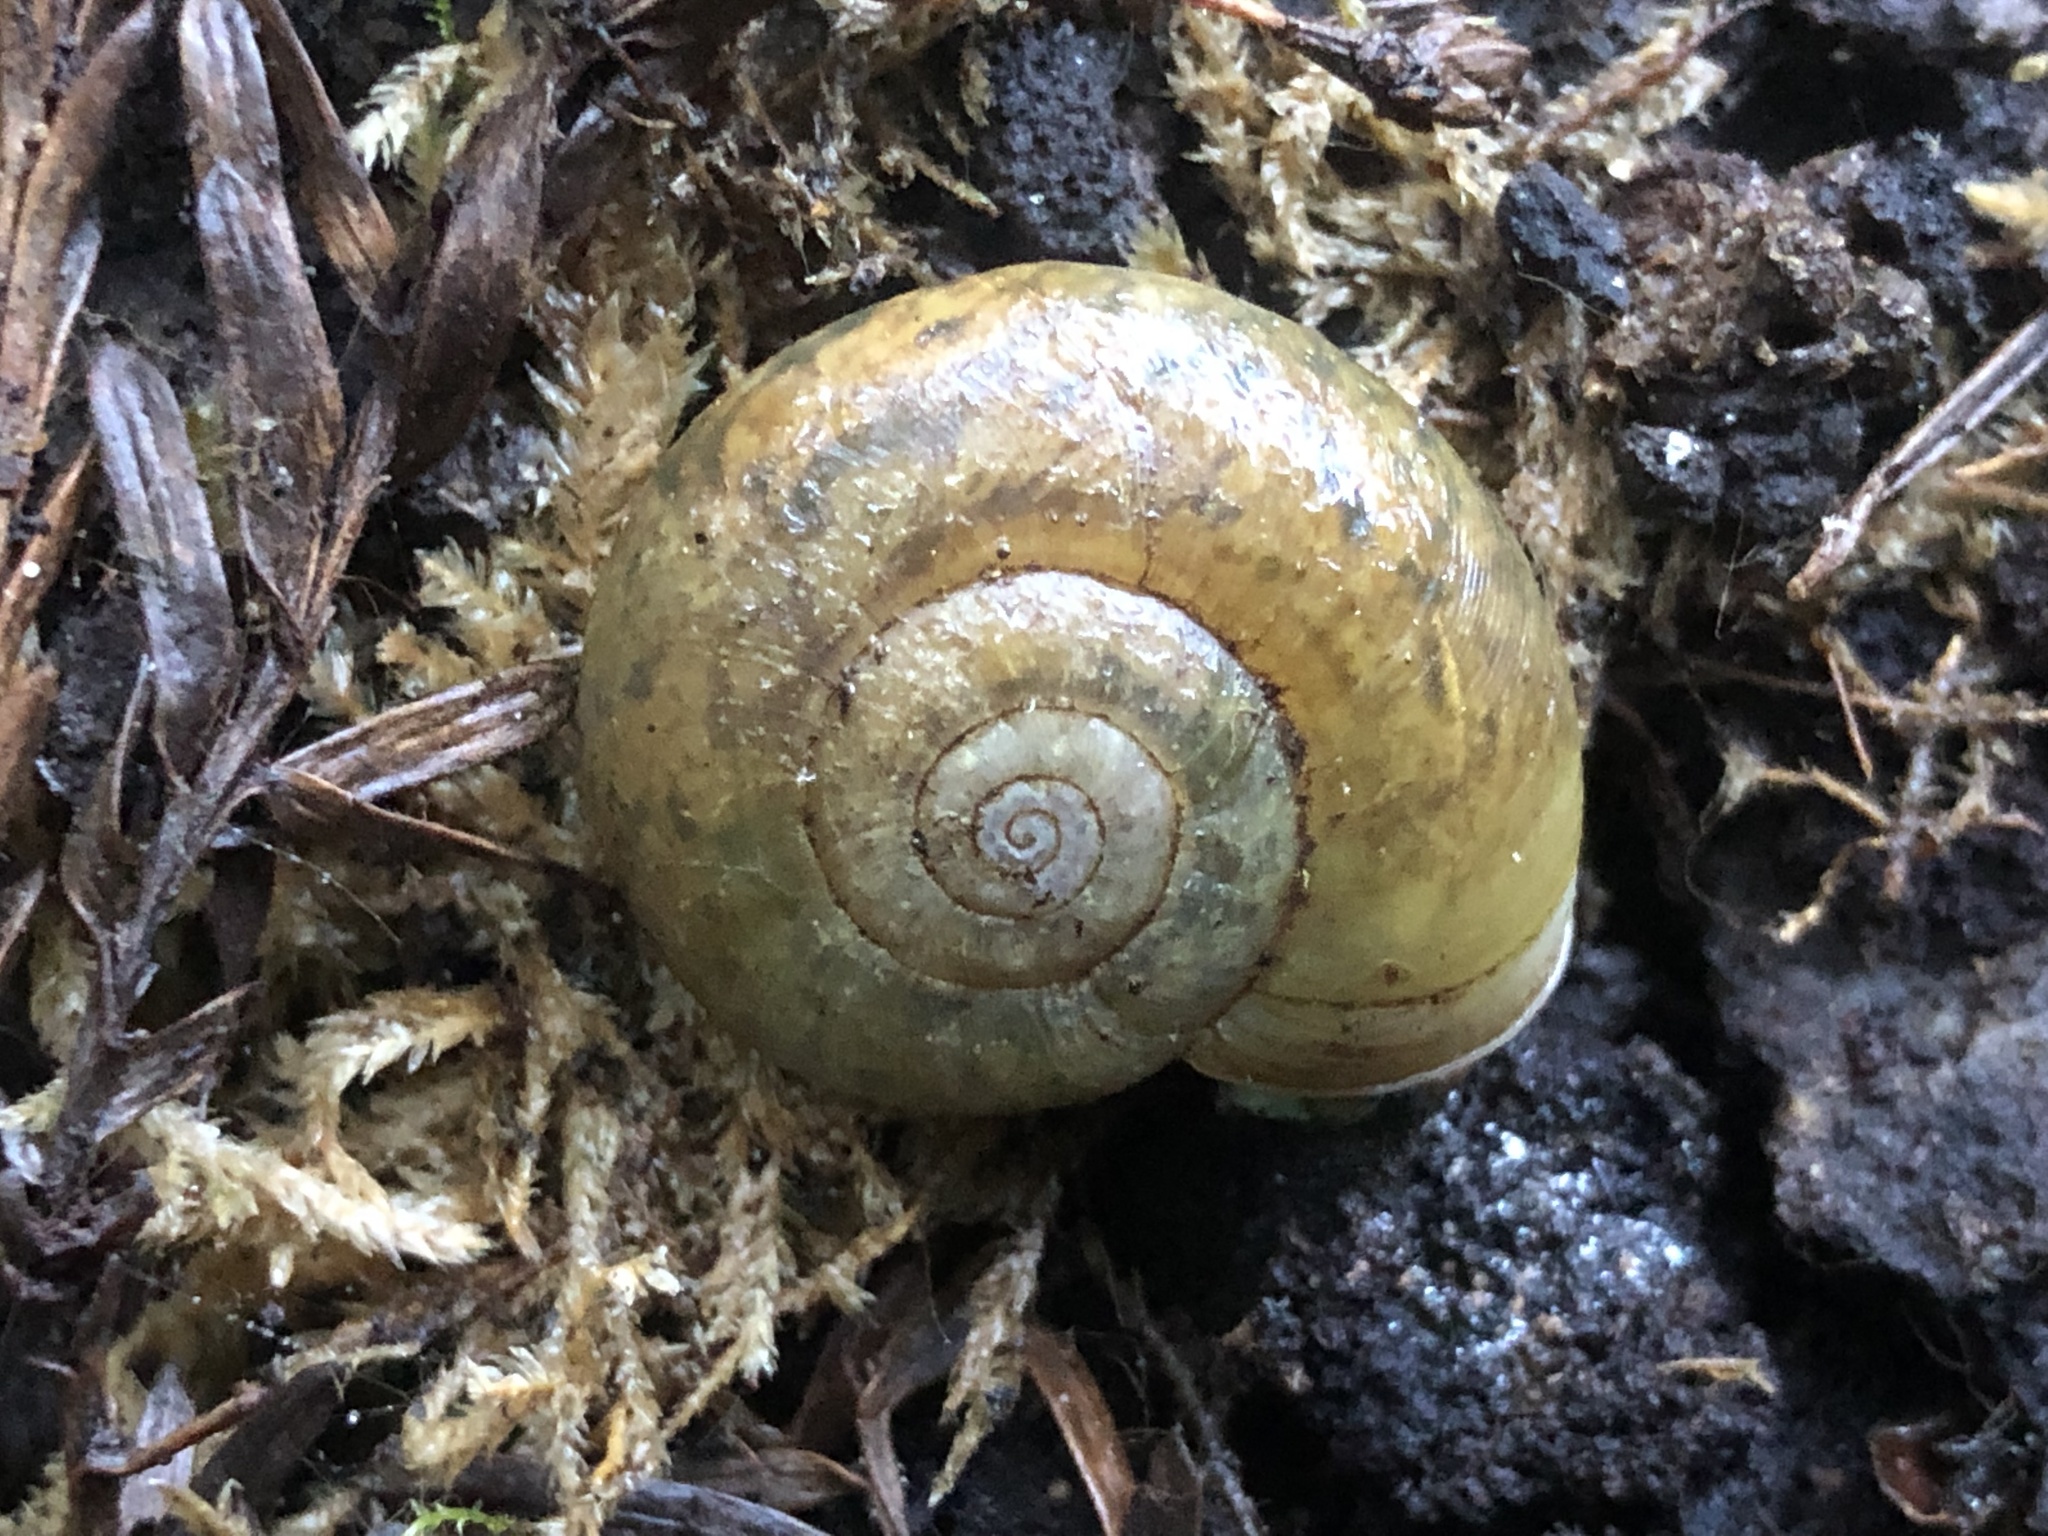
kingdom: Animalia
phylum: Mollusca
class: Gastropoda
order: Stylommatophora
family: Haplotrematidae
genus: Haplotrema
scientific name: Haplotrema minimum
